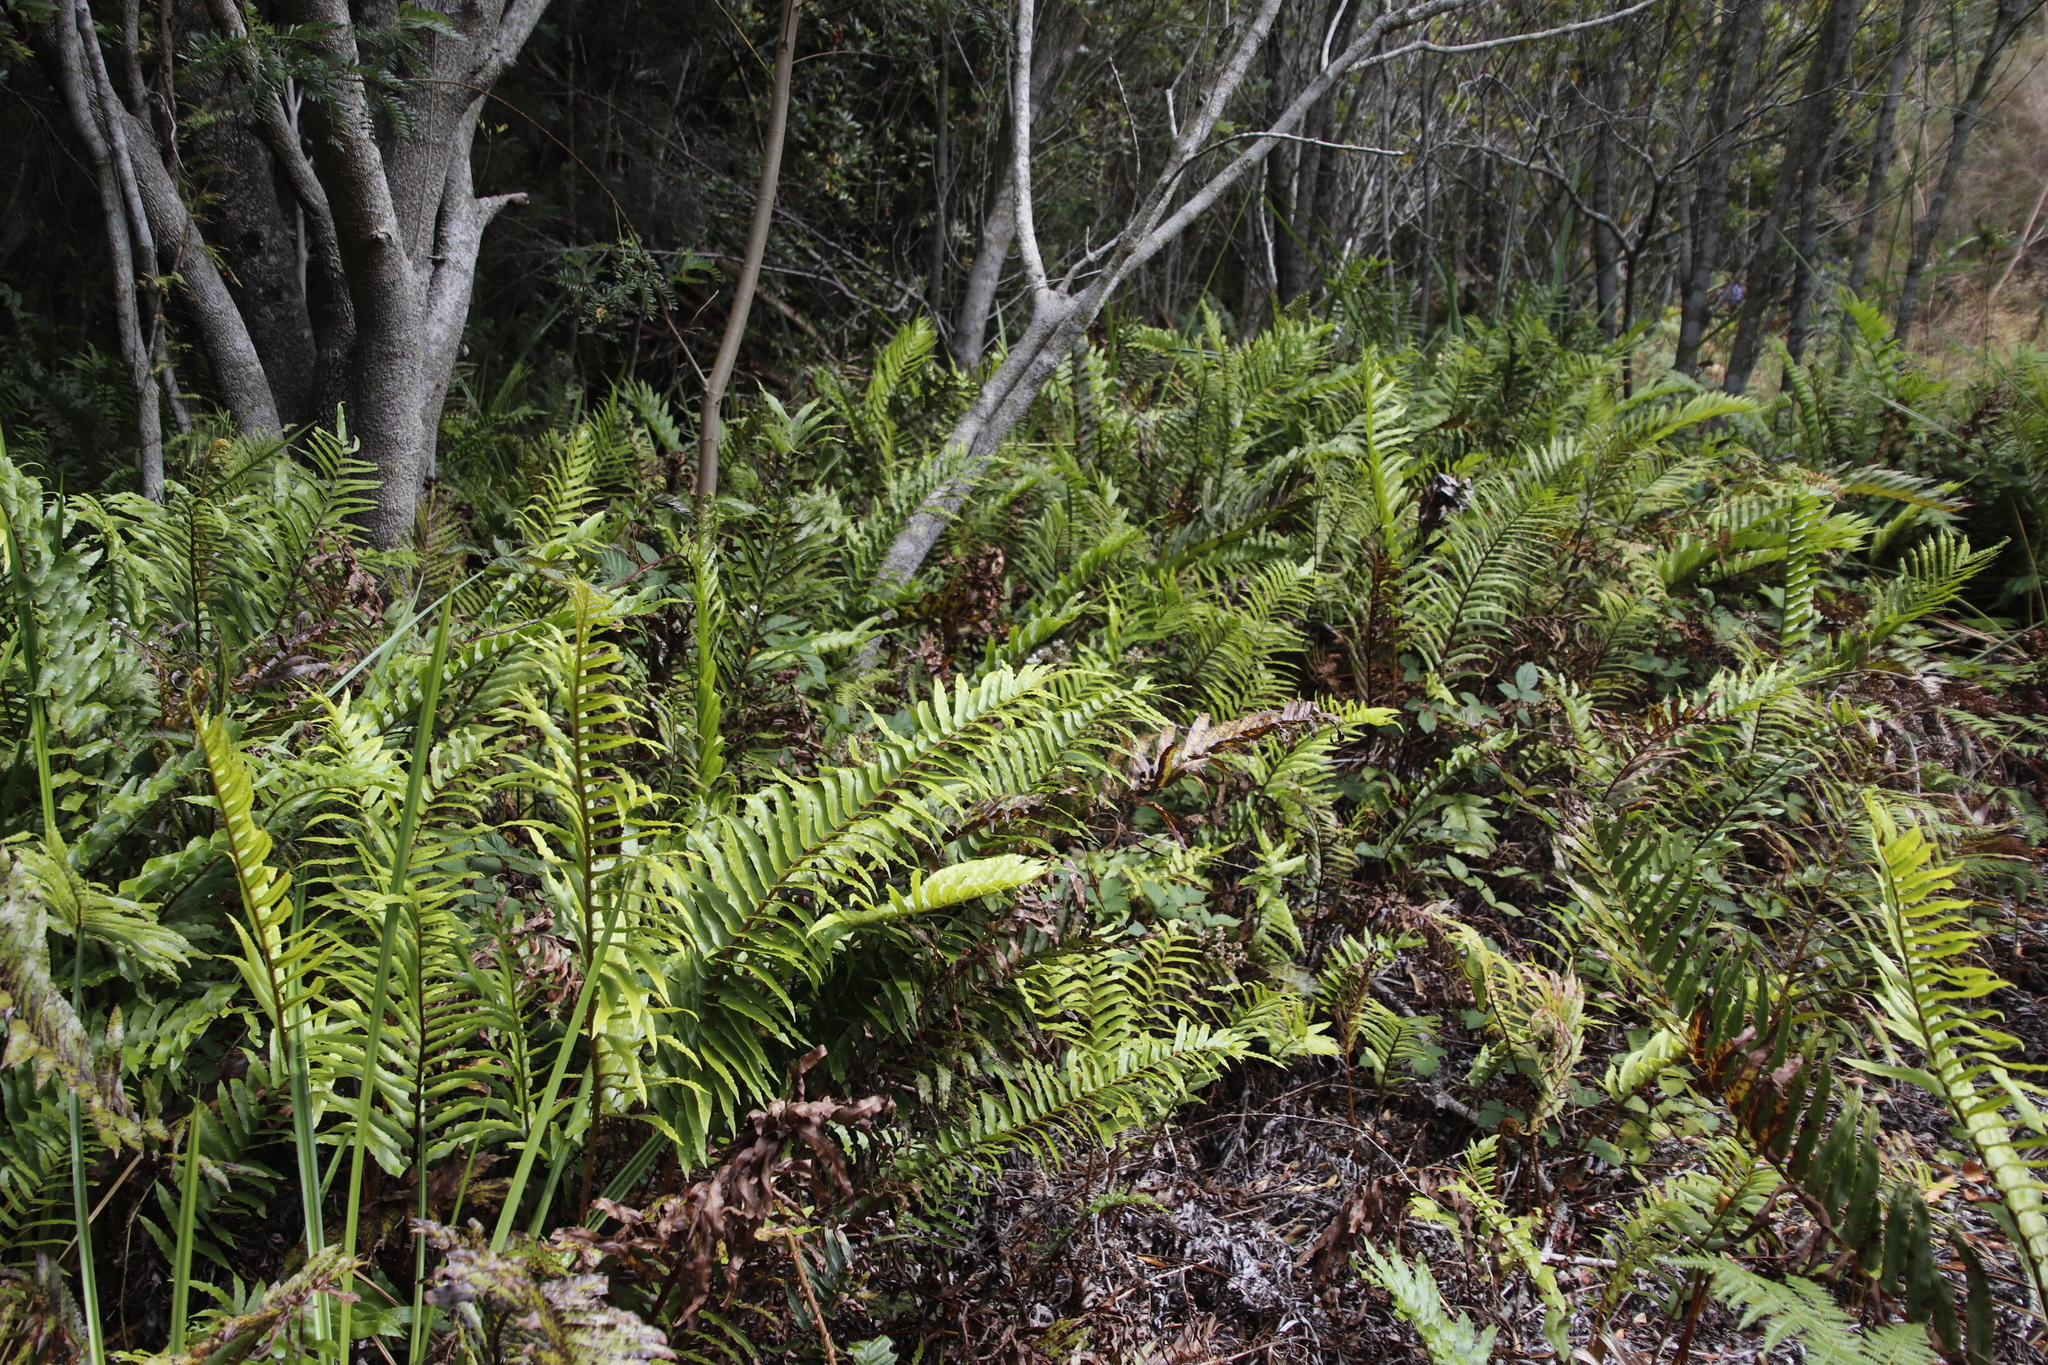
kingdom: Plantae
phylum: Tracheophyta
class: Polypodiopsida
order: Polypodiales
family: Blechnaceae
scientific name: Blechnaceae
